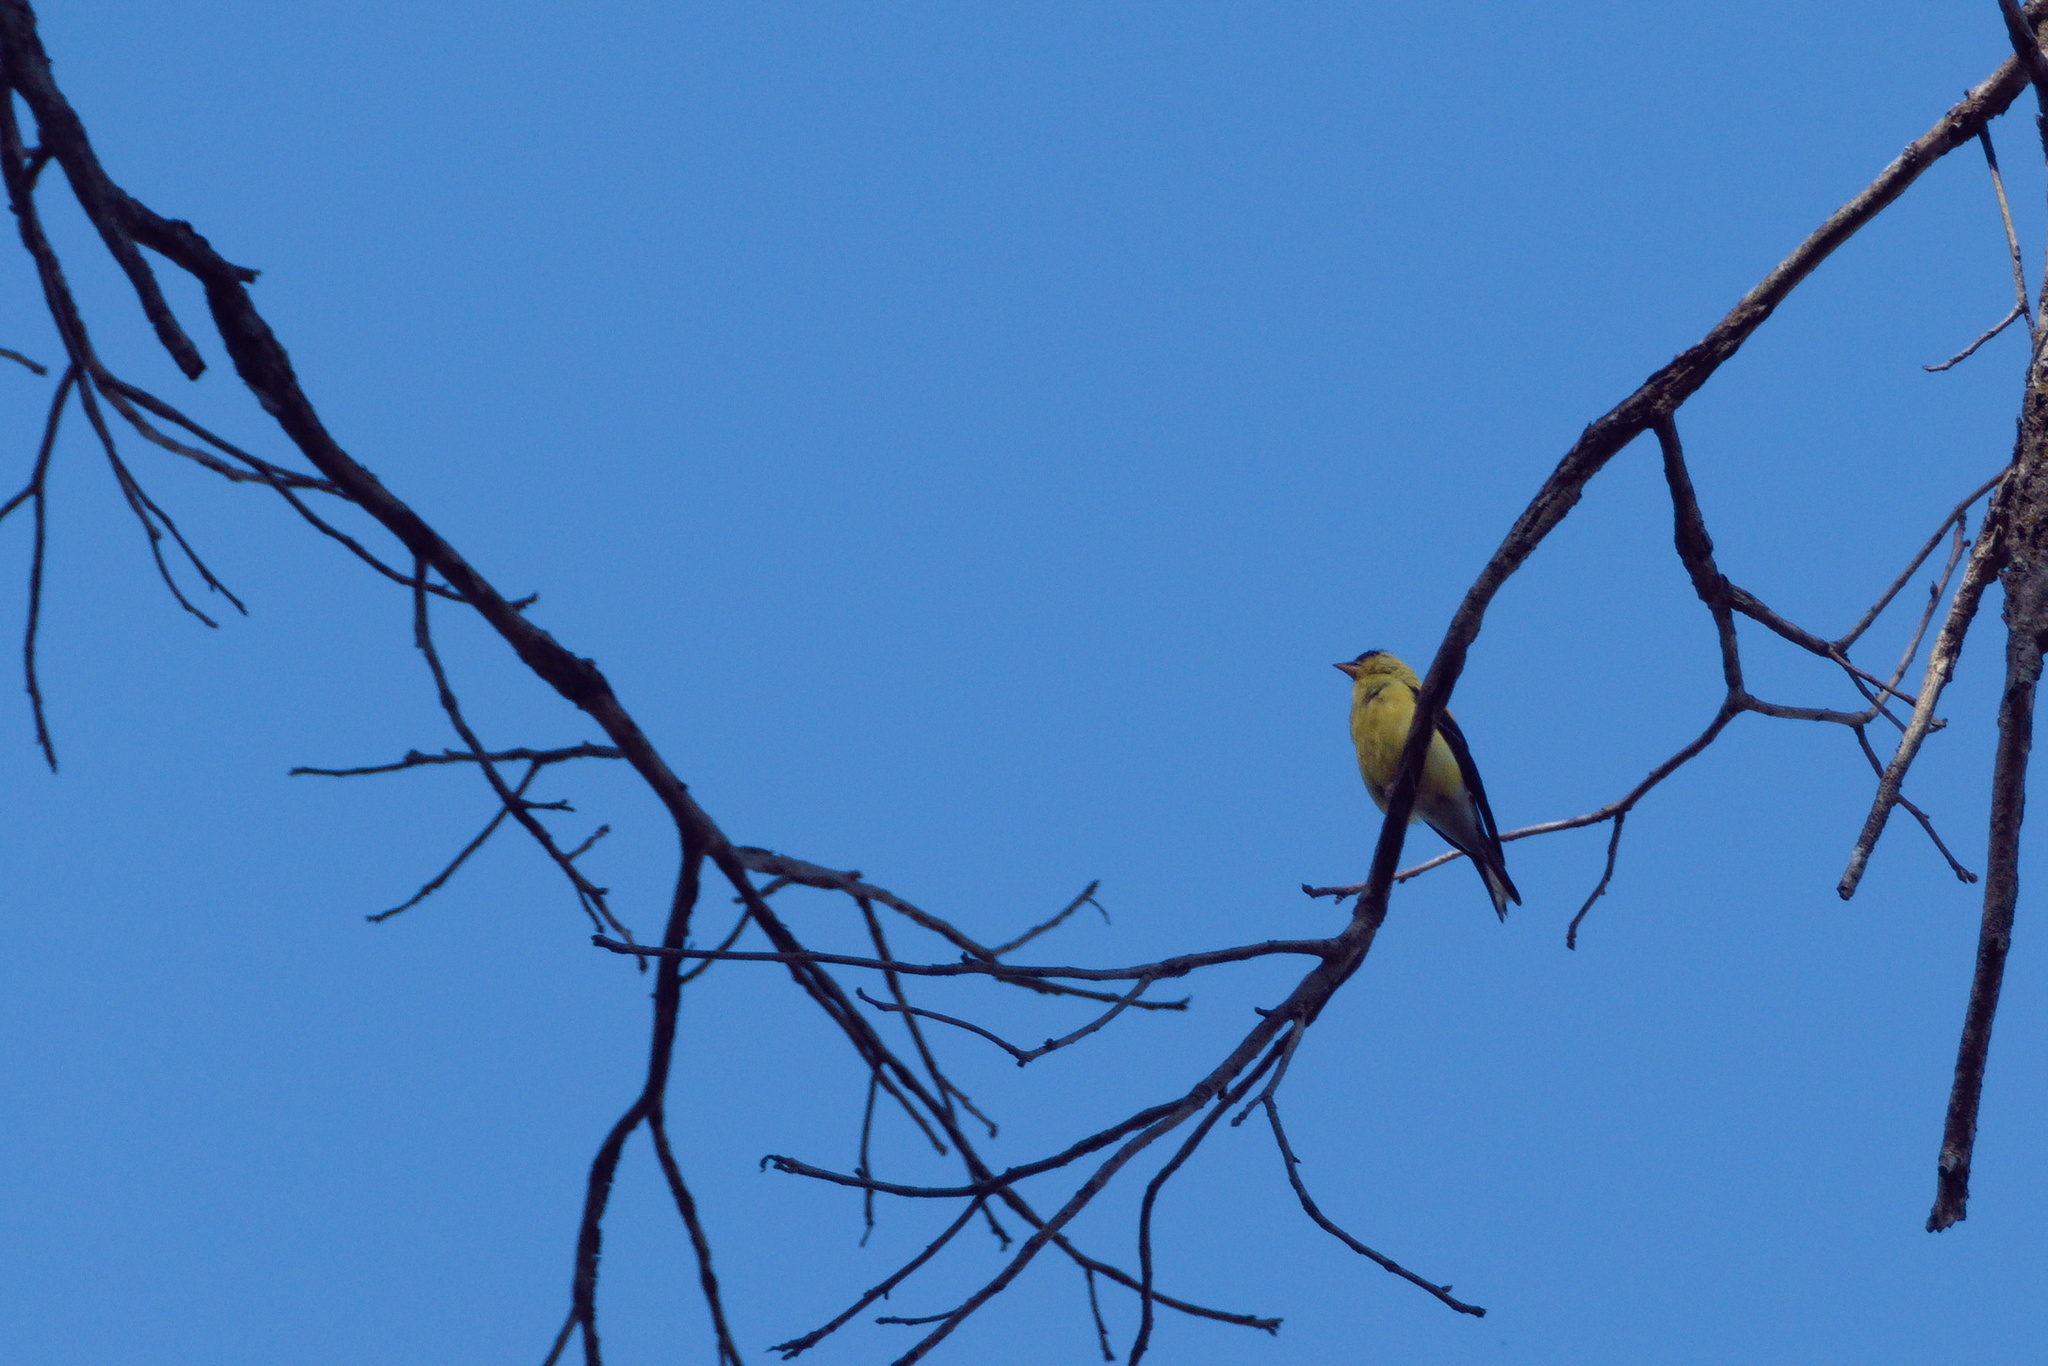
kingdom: Animalia
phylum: Chordata
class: Aves
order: Passeriformes
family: Fringillidae
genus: Spinus
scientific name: Spinus tristis
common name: American goldfinch
